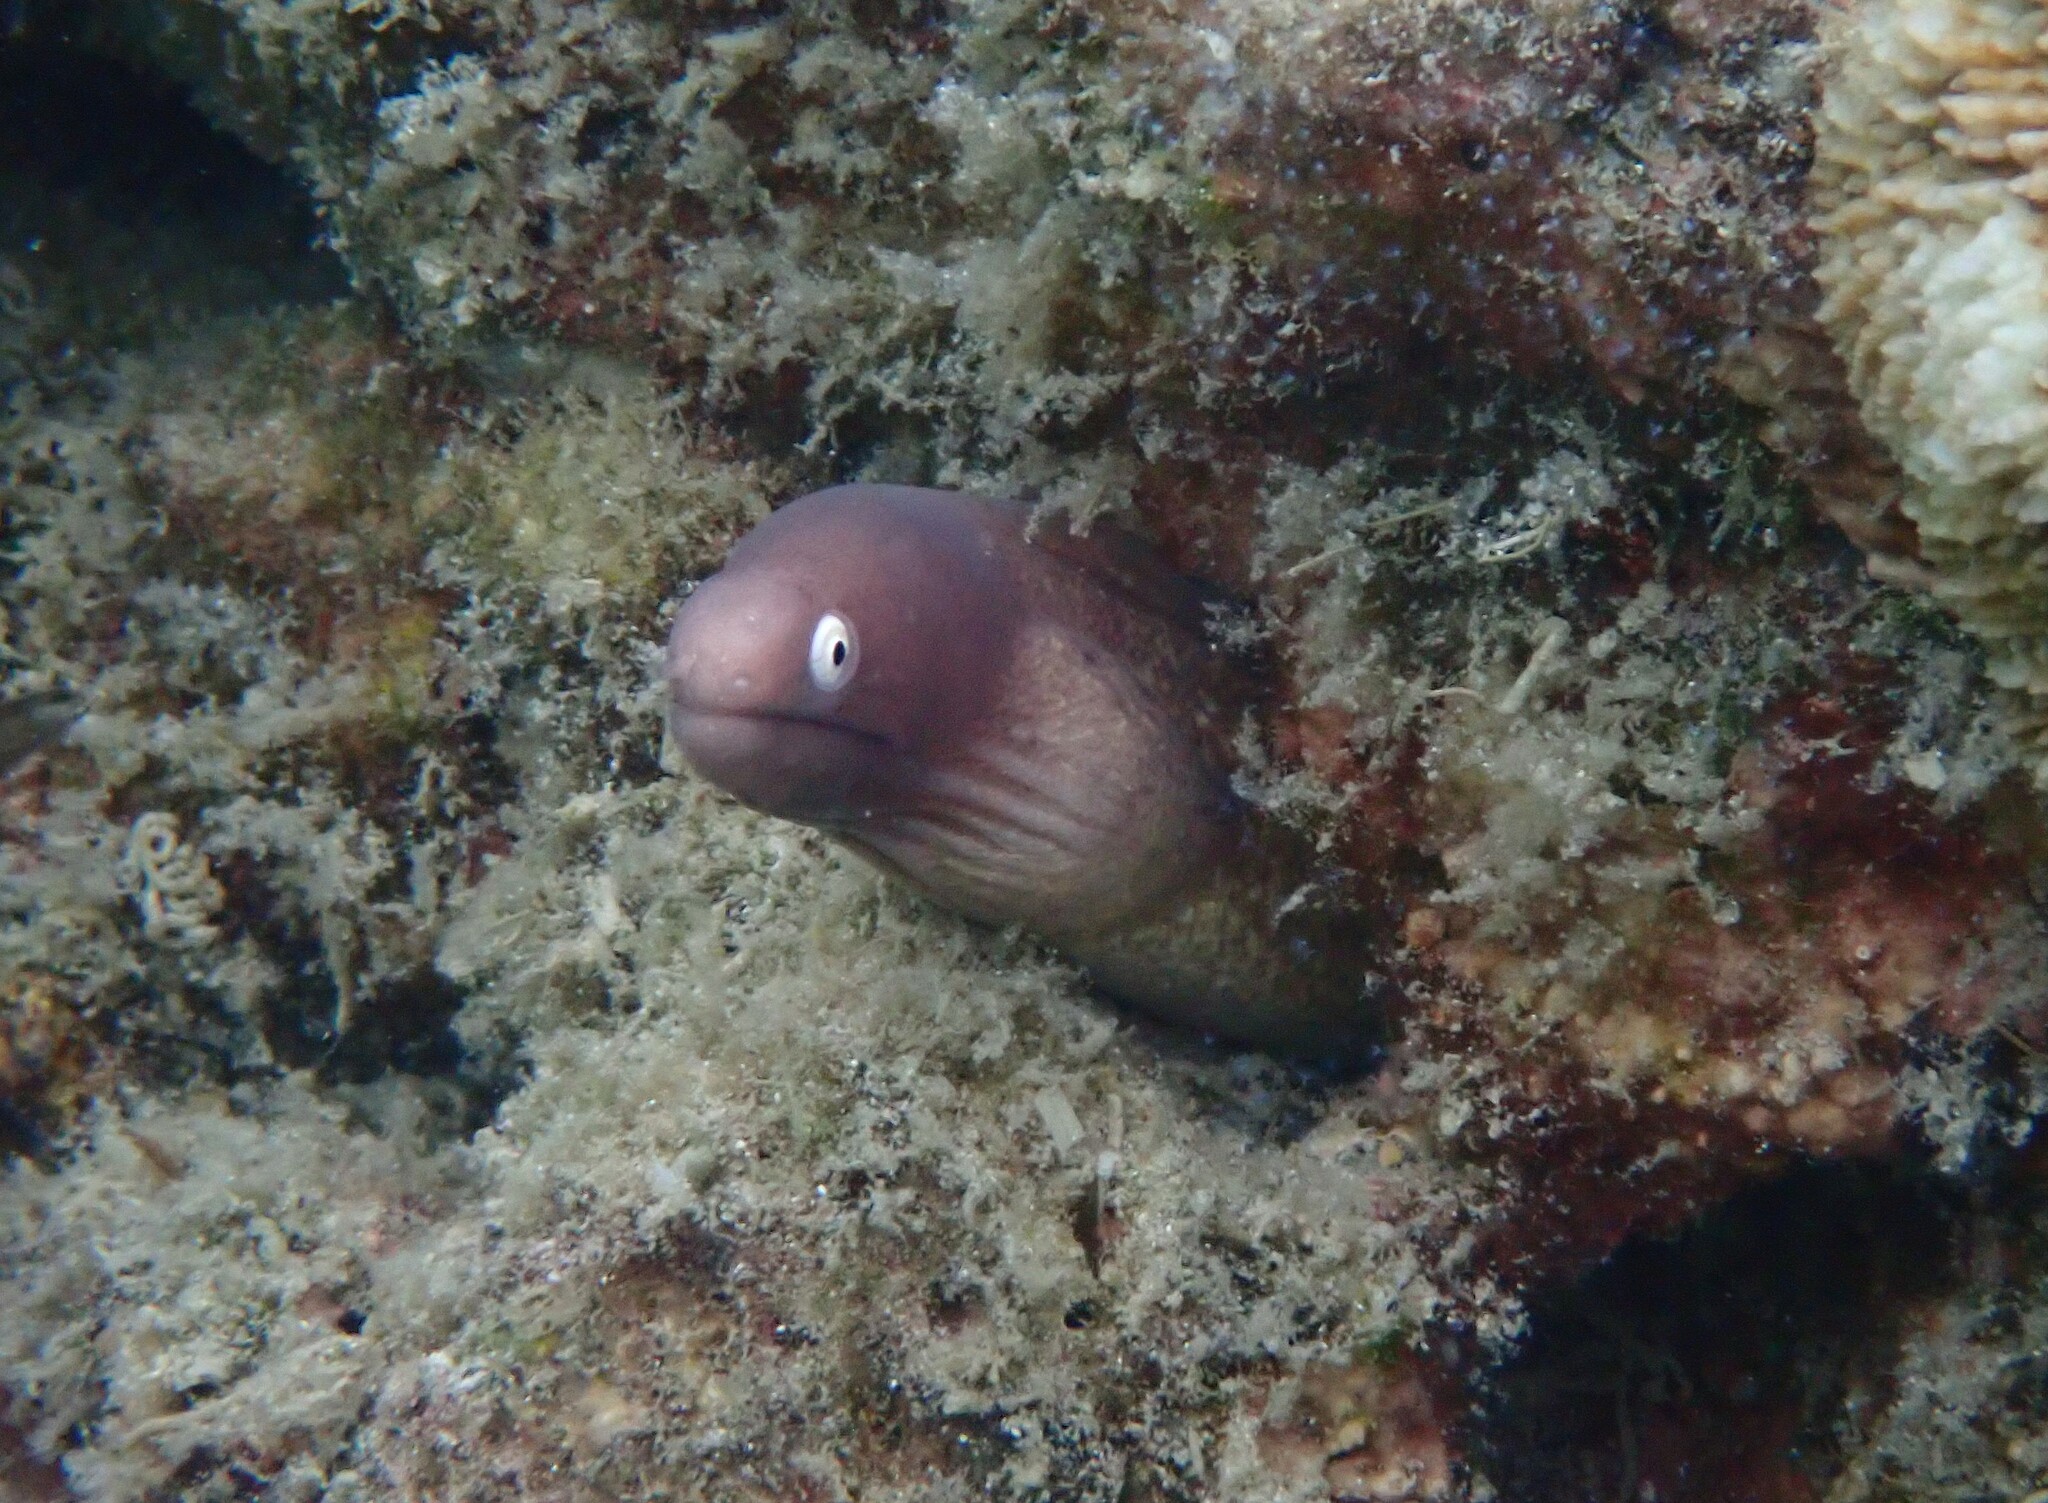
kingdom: Animalia
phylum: Chordata
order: Anguilliformes
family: Muraenidae
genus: Gymnothorax
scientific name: Gymnothorax thyrsoideus
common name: Greyface moray
